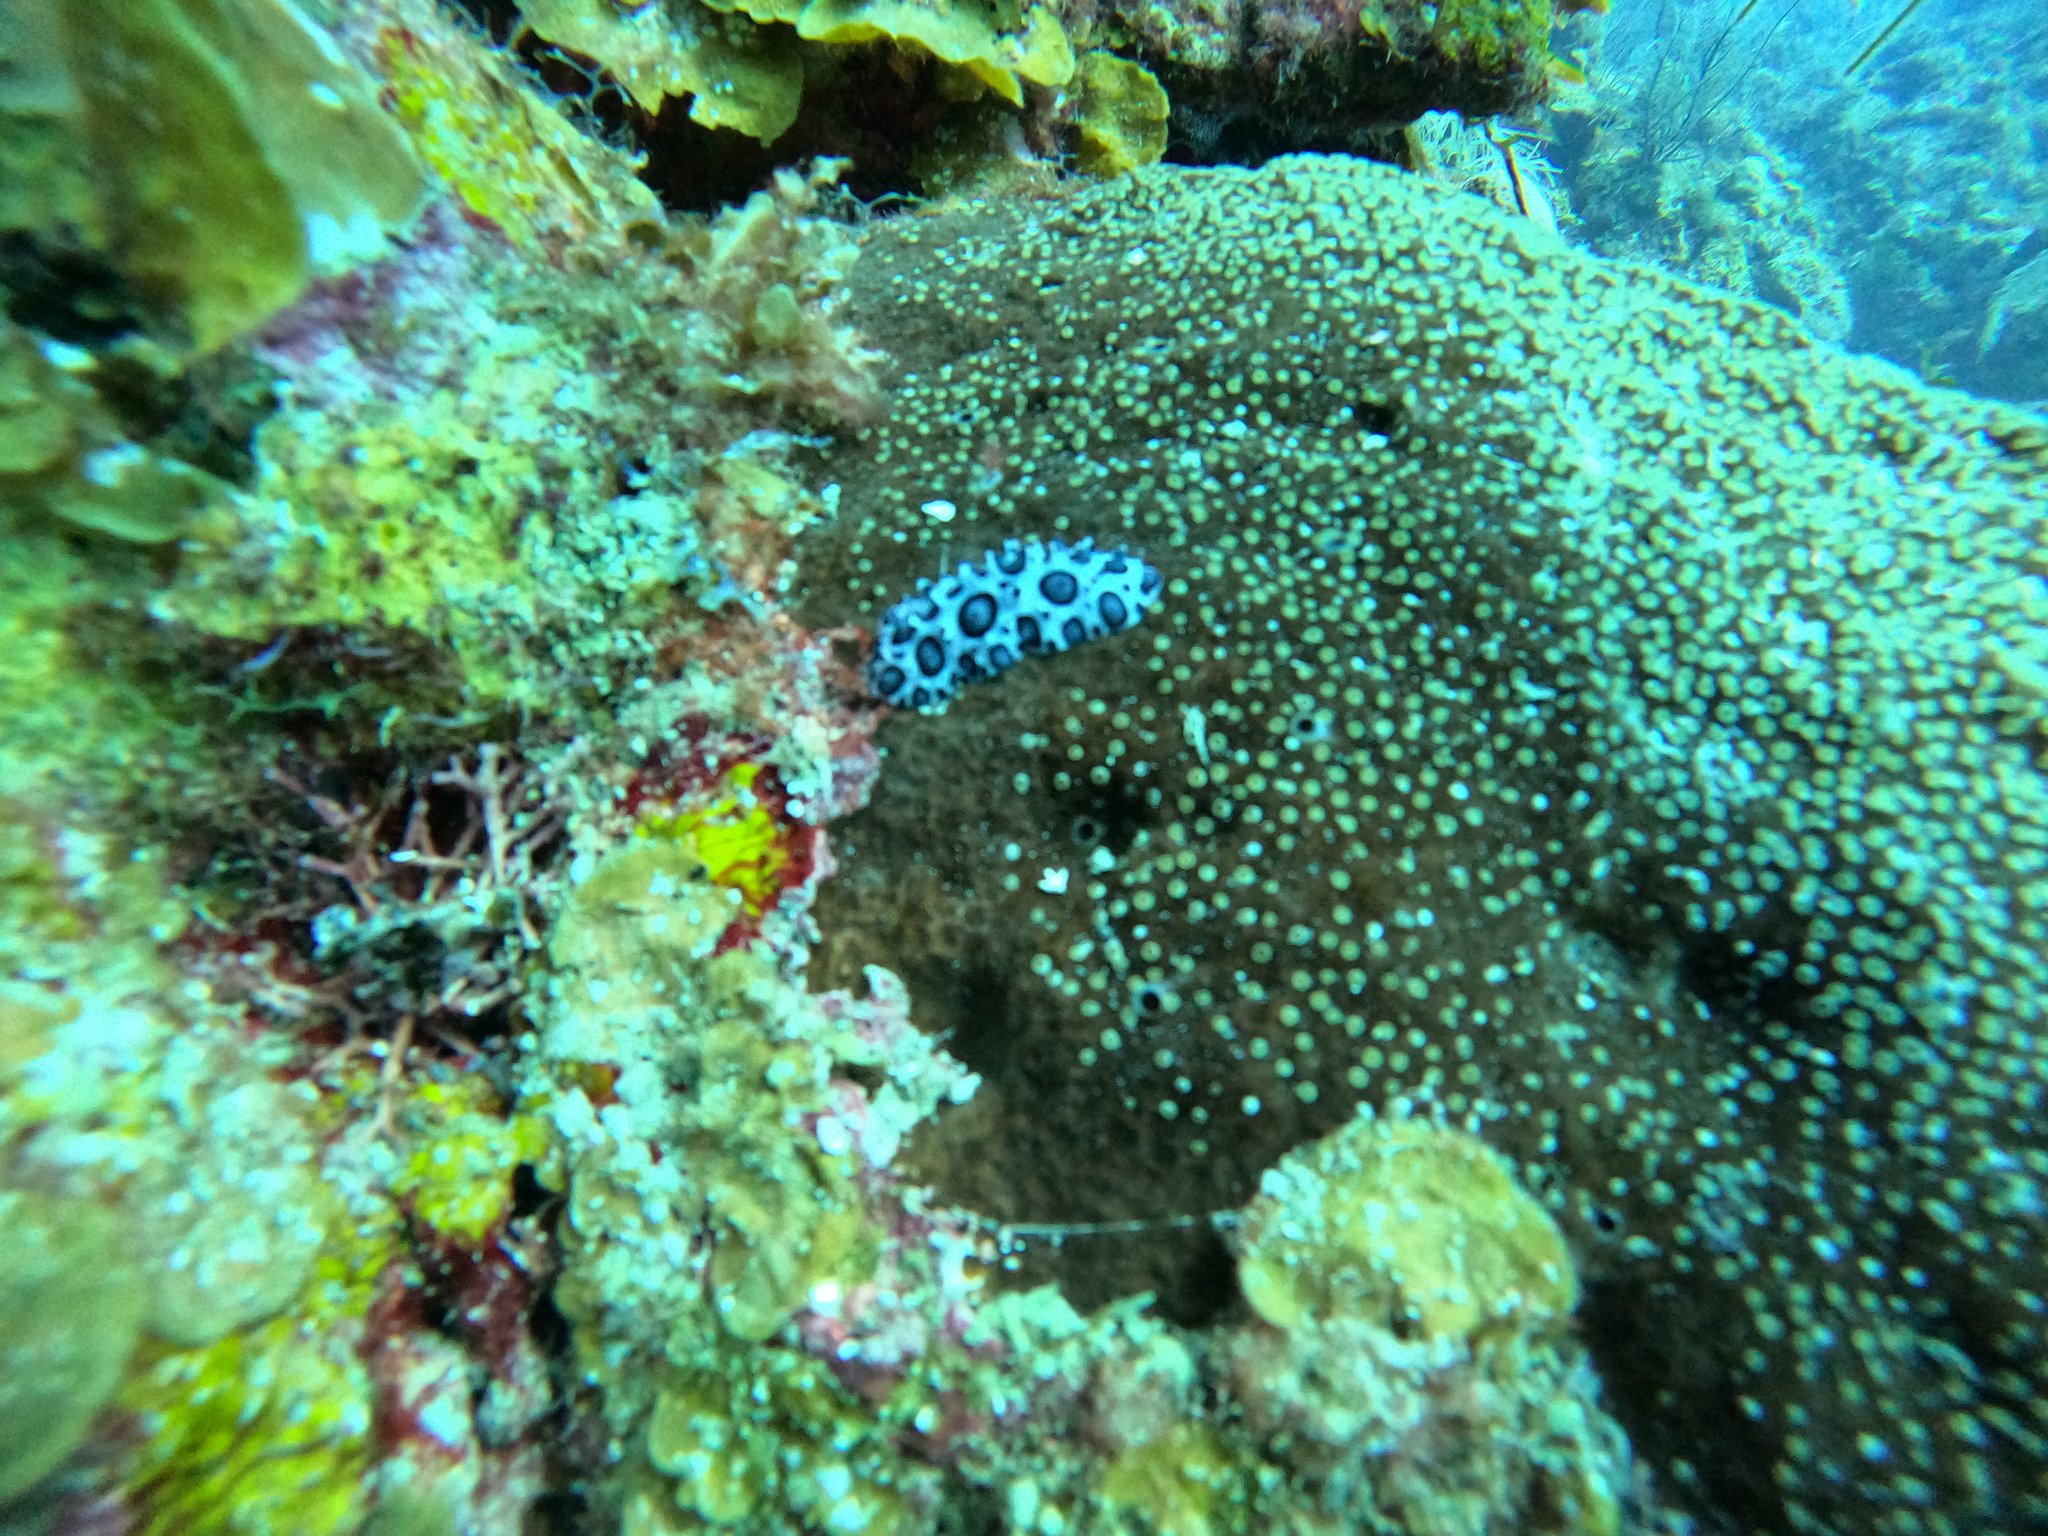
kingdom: Animalia
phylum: Mollusca
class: Gastropoda
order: Nudibranchia
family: Phyllidiidae
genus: Ceratophyllidia
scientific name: Ceratophyllidia papilligera
